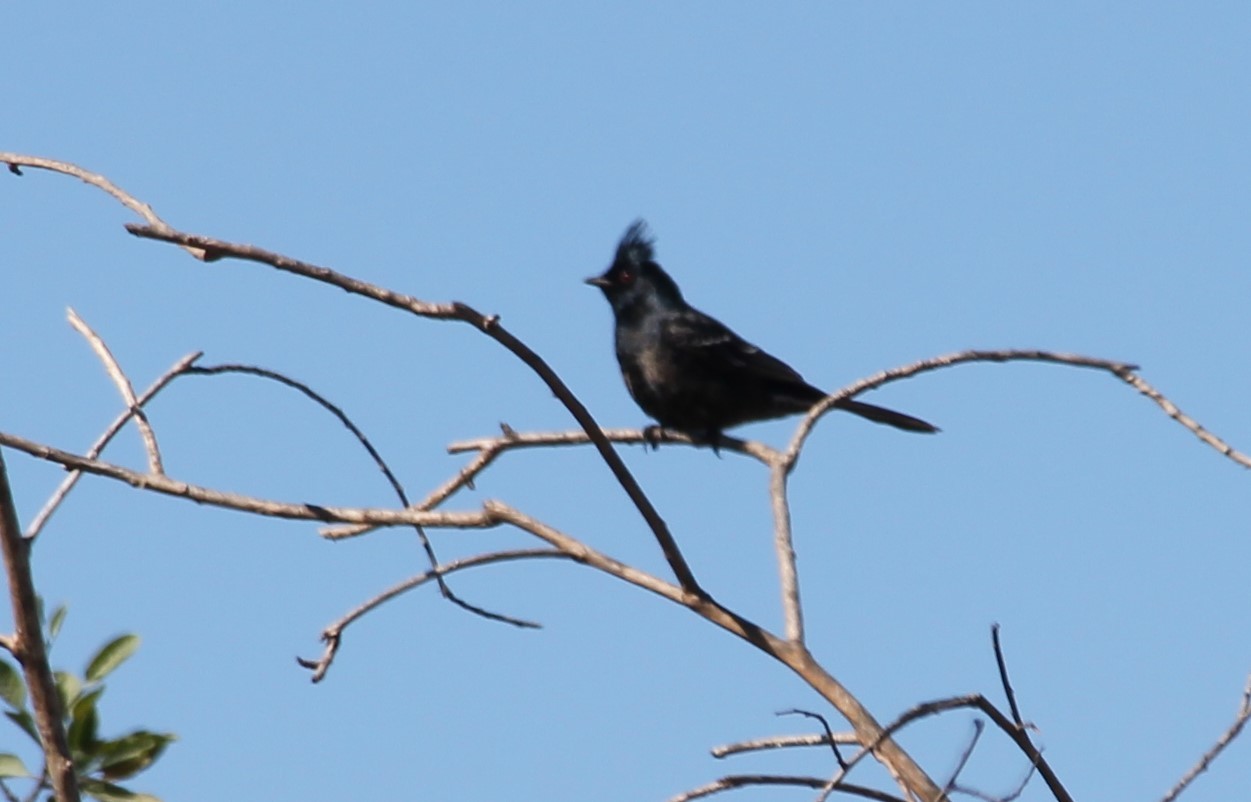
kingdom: Animalia
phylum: Chordata
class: Aves
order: Passeriformes
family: Ptilogonatidae
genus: Phainopepla
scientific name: Phainopepla nitens
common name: Phainopepla
